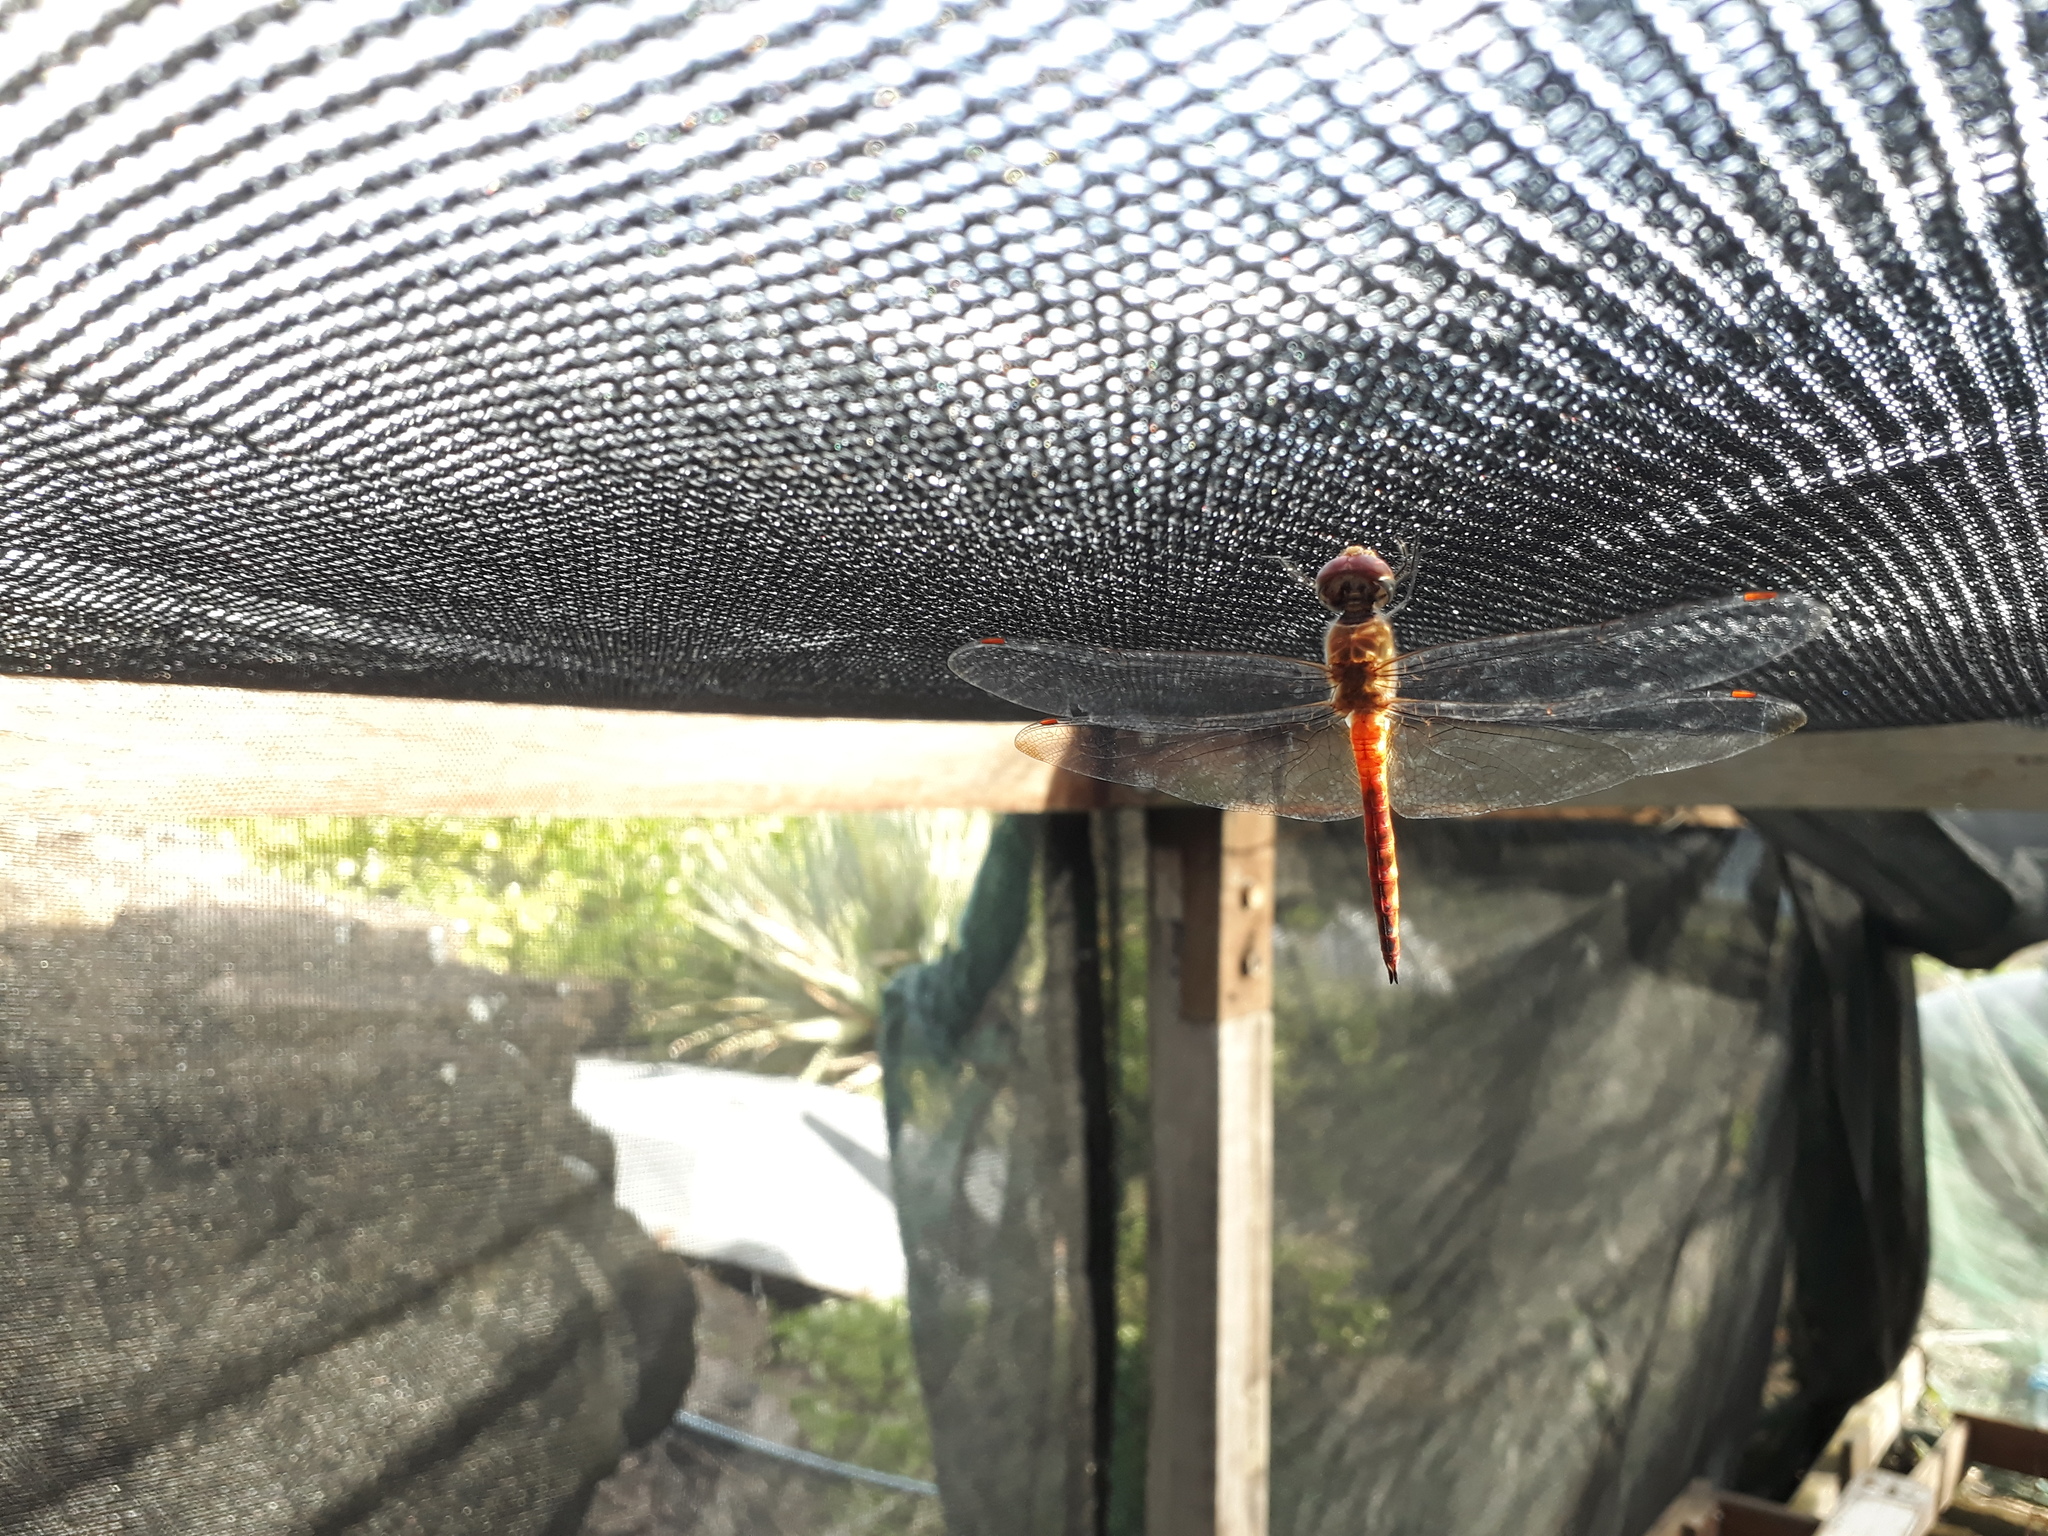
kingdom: Animalia
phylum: Arthropoda
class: Insecta
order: Odonata
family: Libellulidae
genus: Pantala
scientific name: Pantala flavescens
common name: Wandering glider
